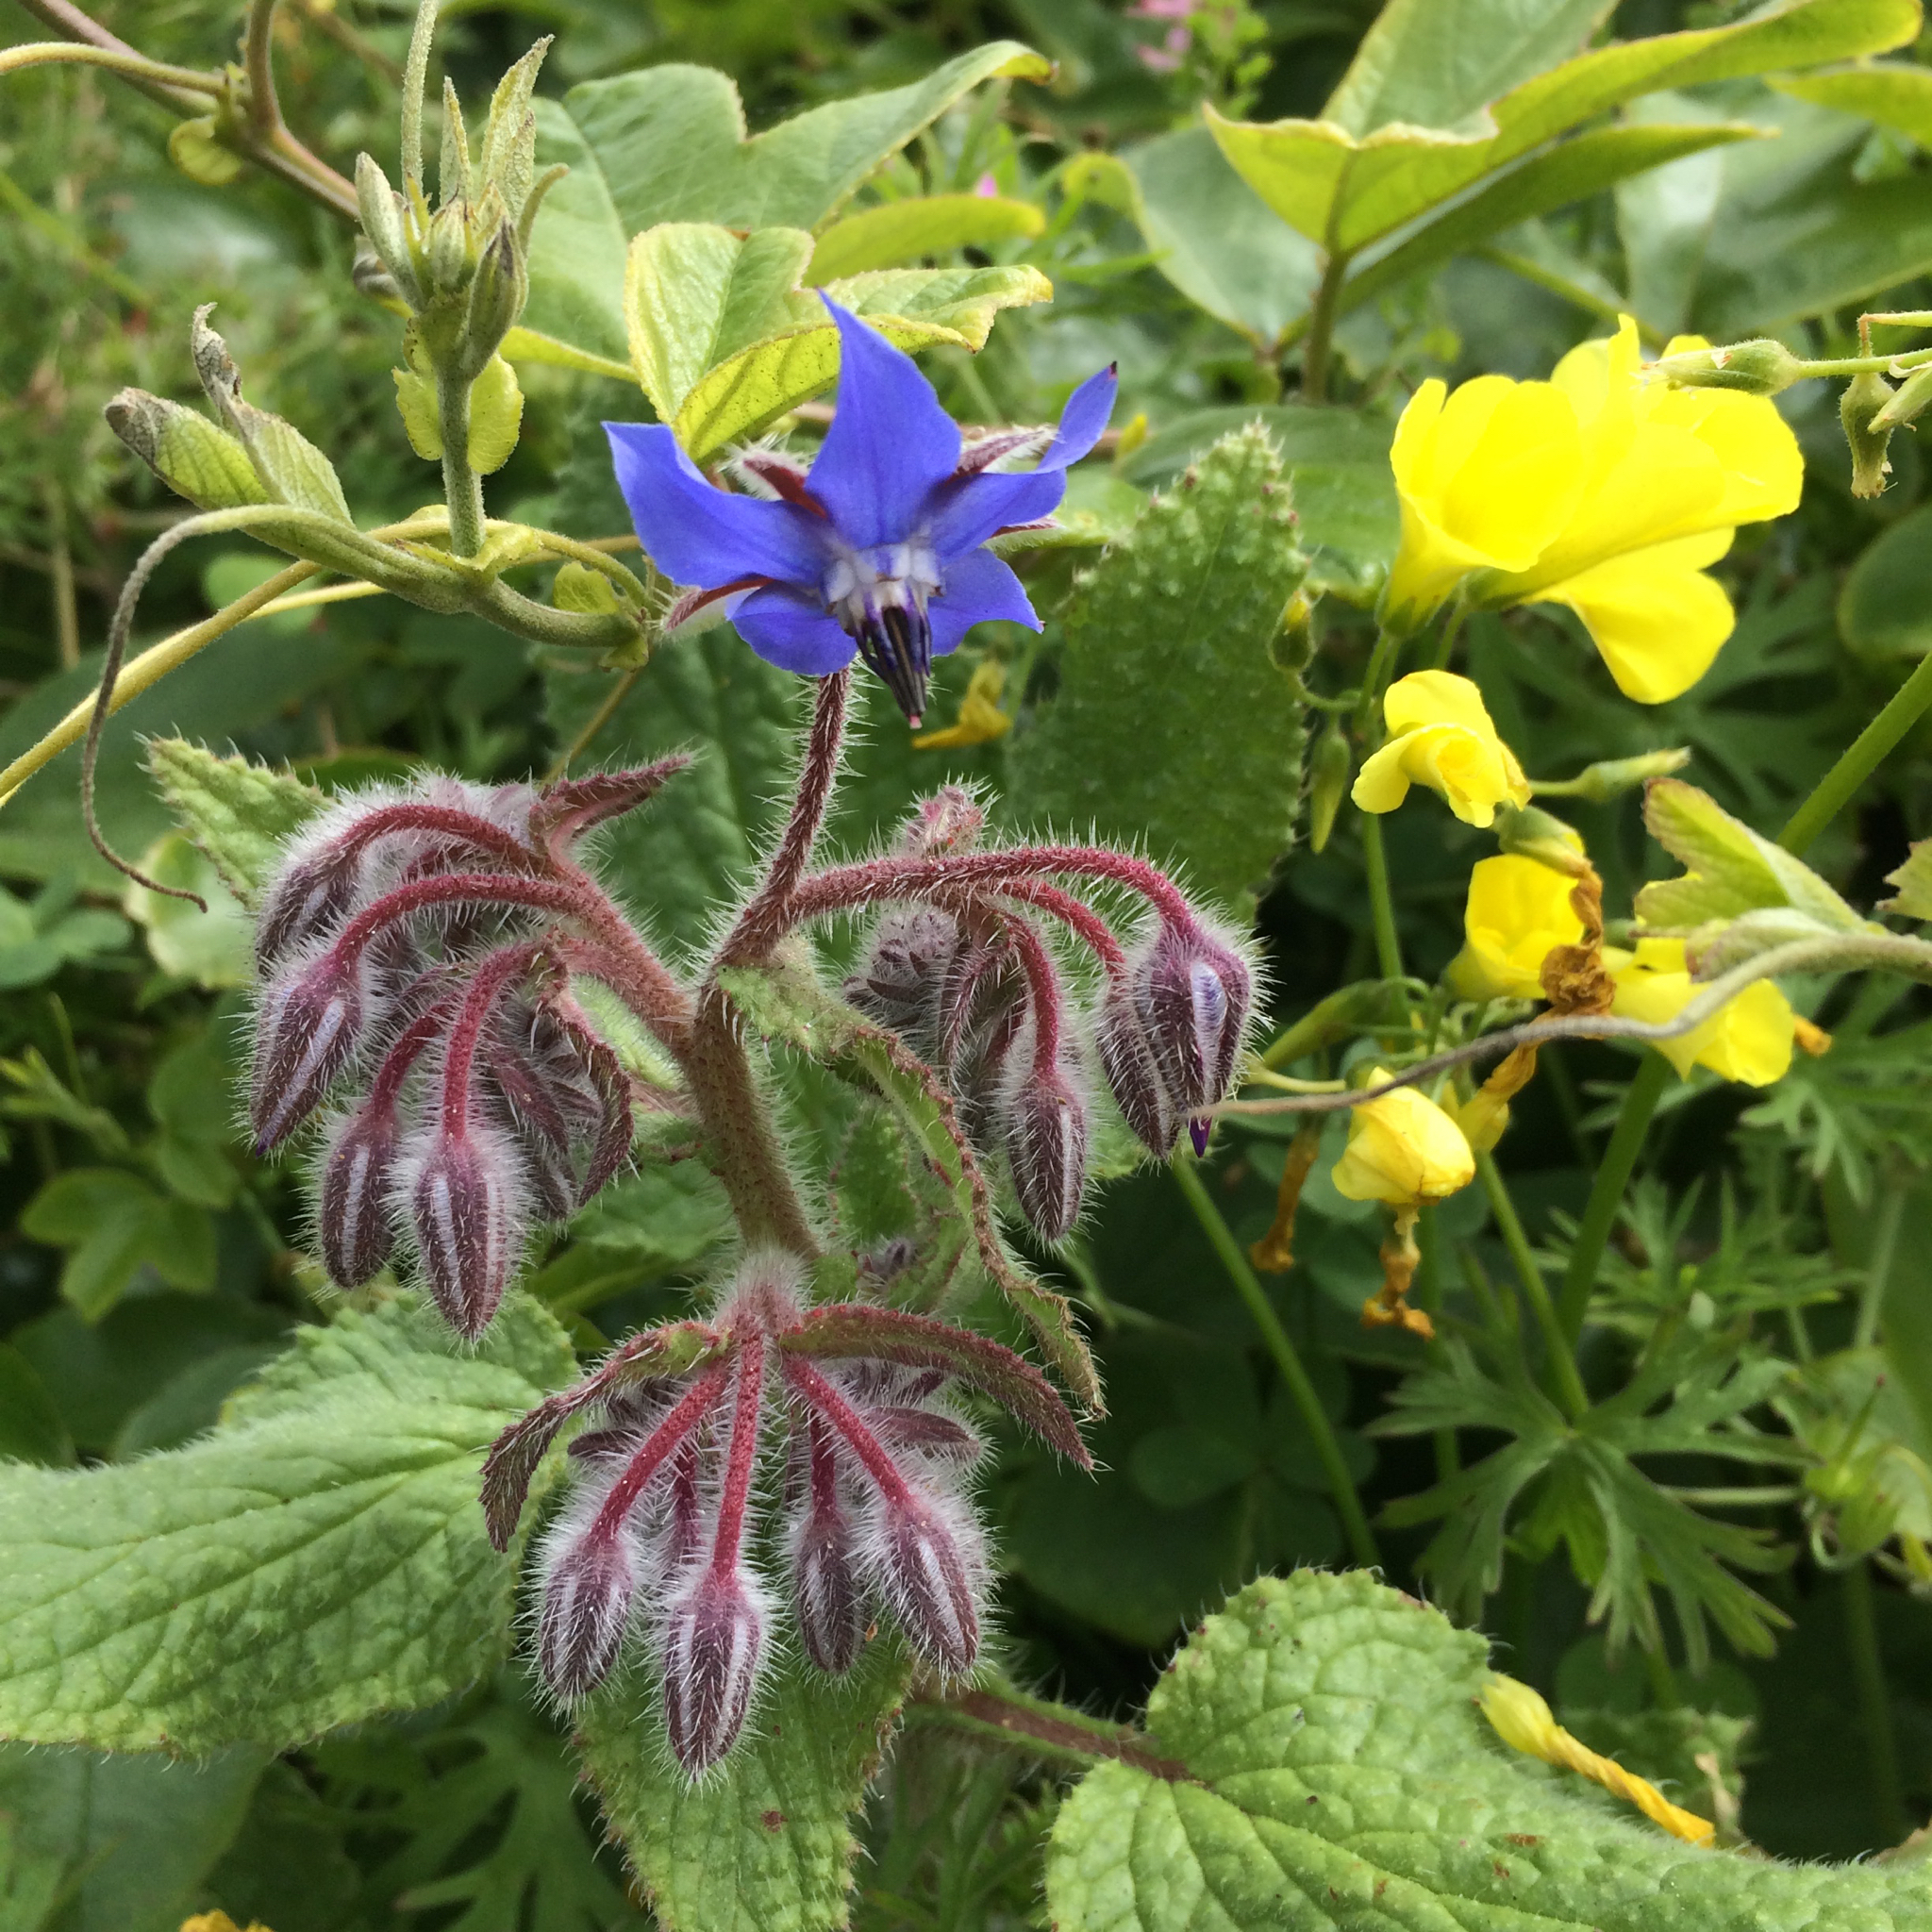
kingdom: Plantae
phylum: Tracheophyta
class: Magnoliopsida
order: Boraginales
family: Boraginaceae
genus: Borago
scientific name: Borago officinalis
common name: Borage
